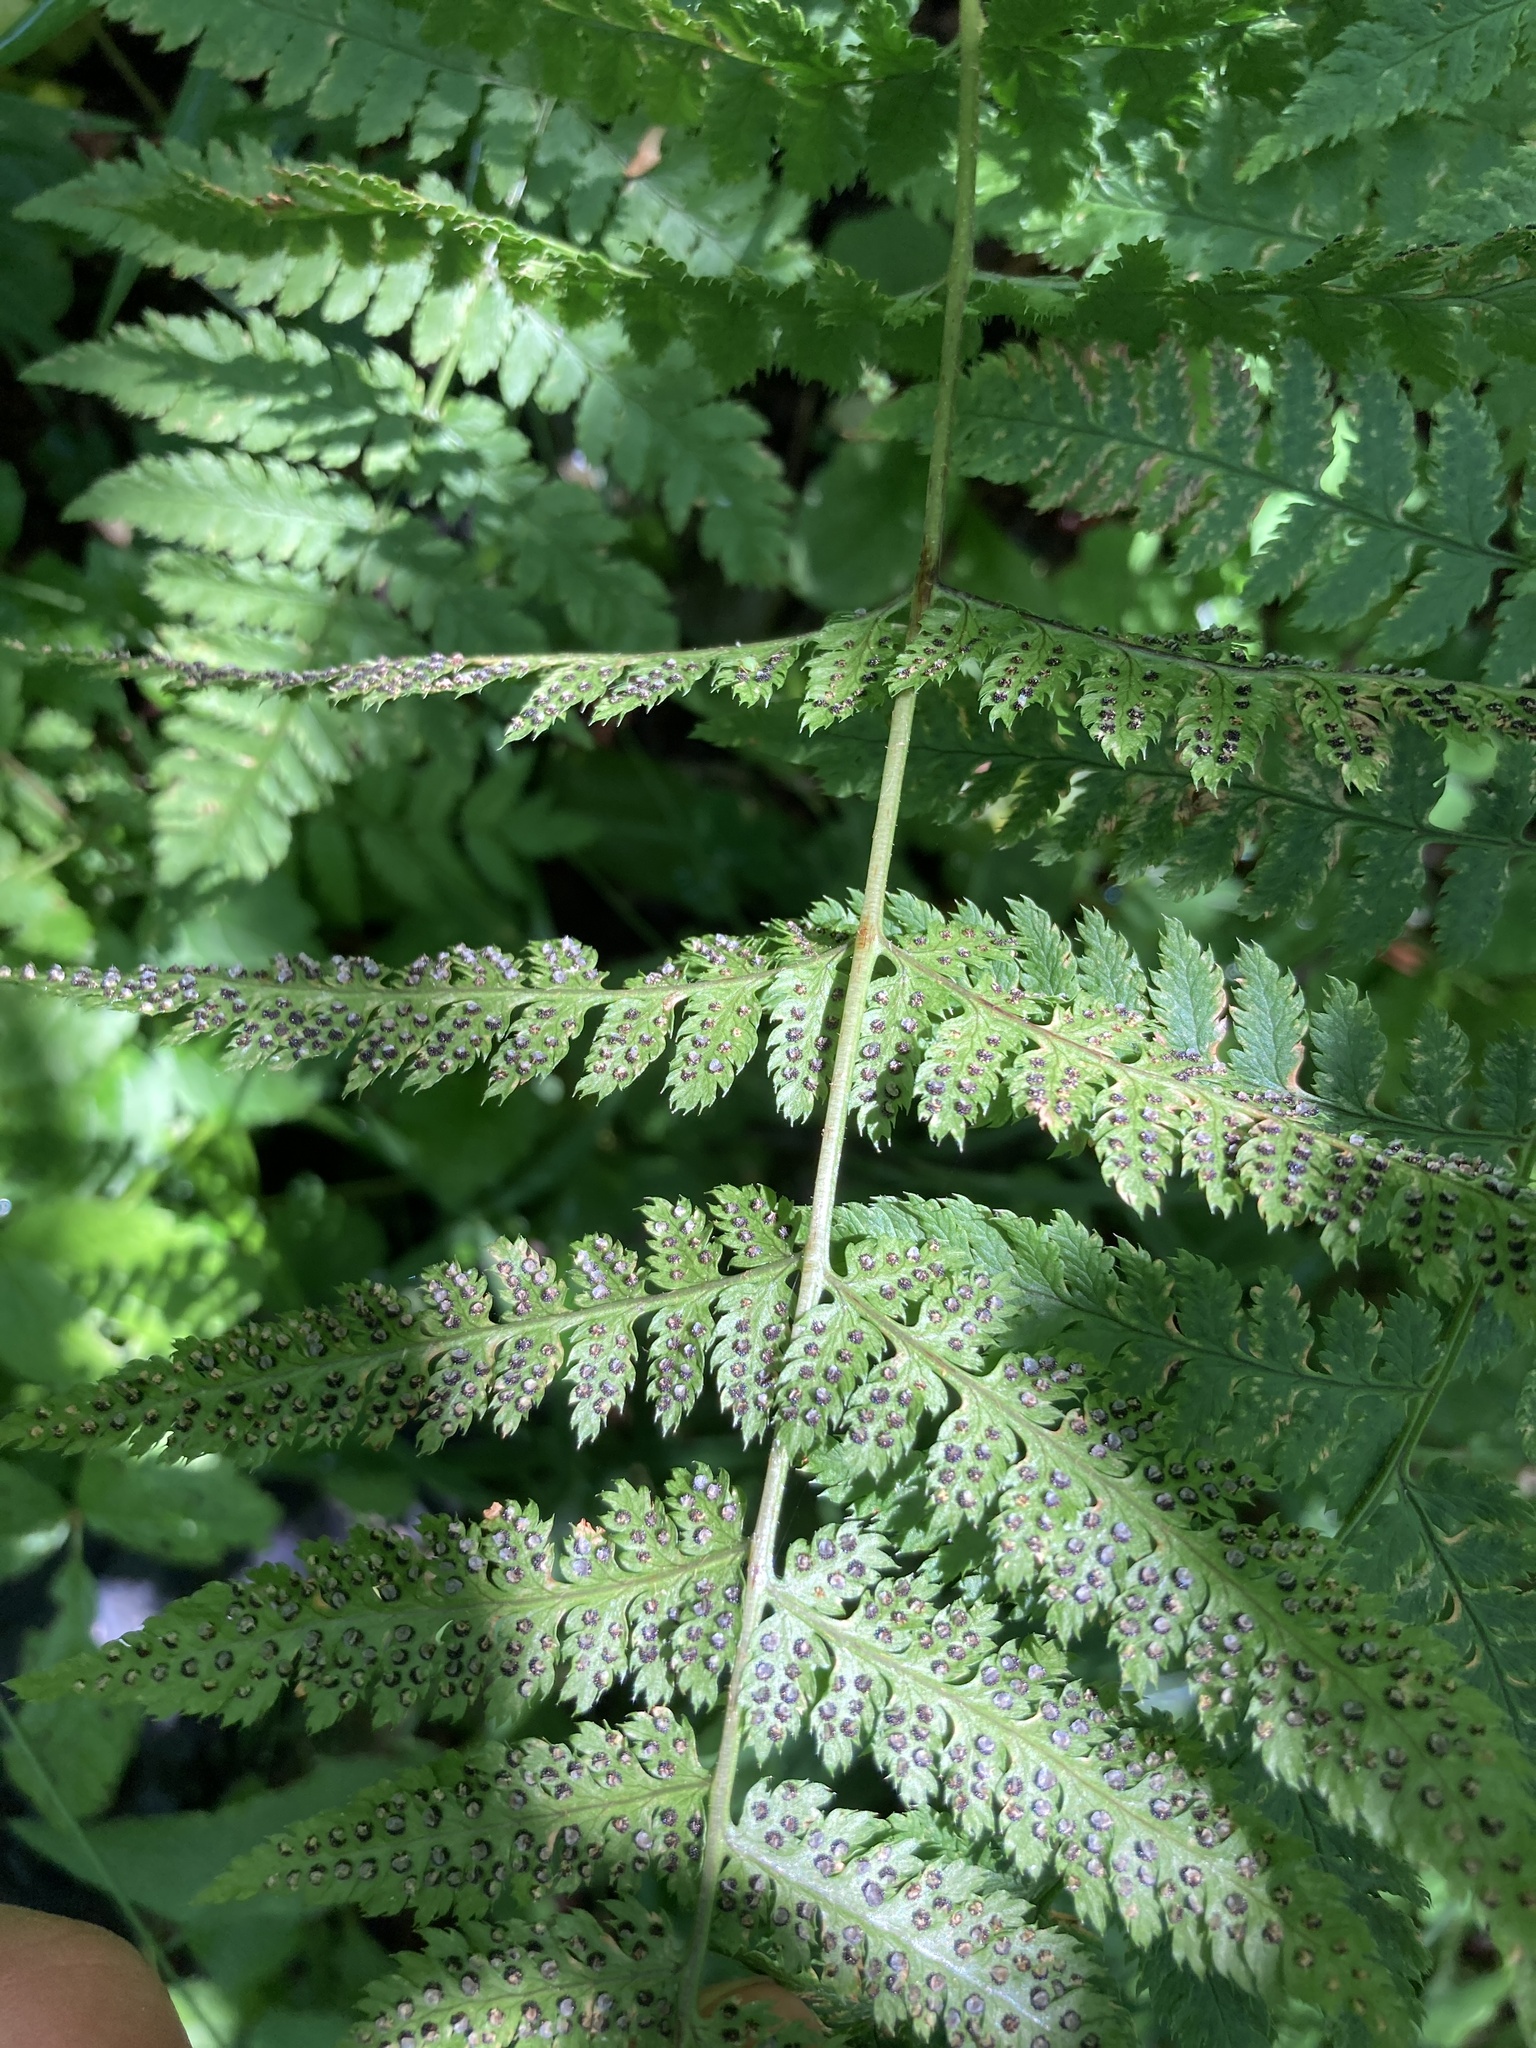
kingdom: Plantae
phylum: Tracheophyta
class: Polypodiopsida
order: Polypodiales
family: Dryopteridaceae
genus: Dryopteris
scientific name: Dryopteris carthusiana
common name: Narrow buckler-fern
